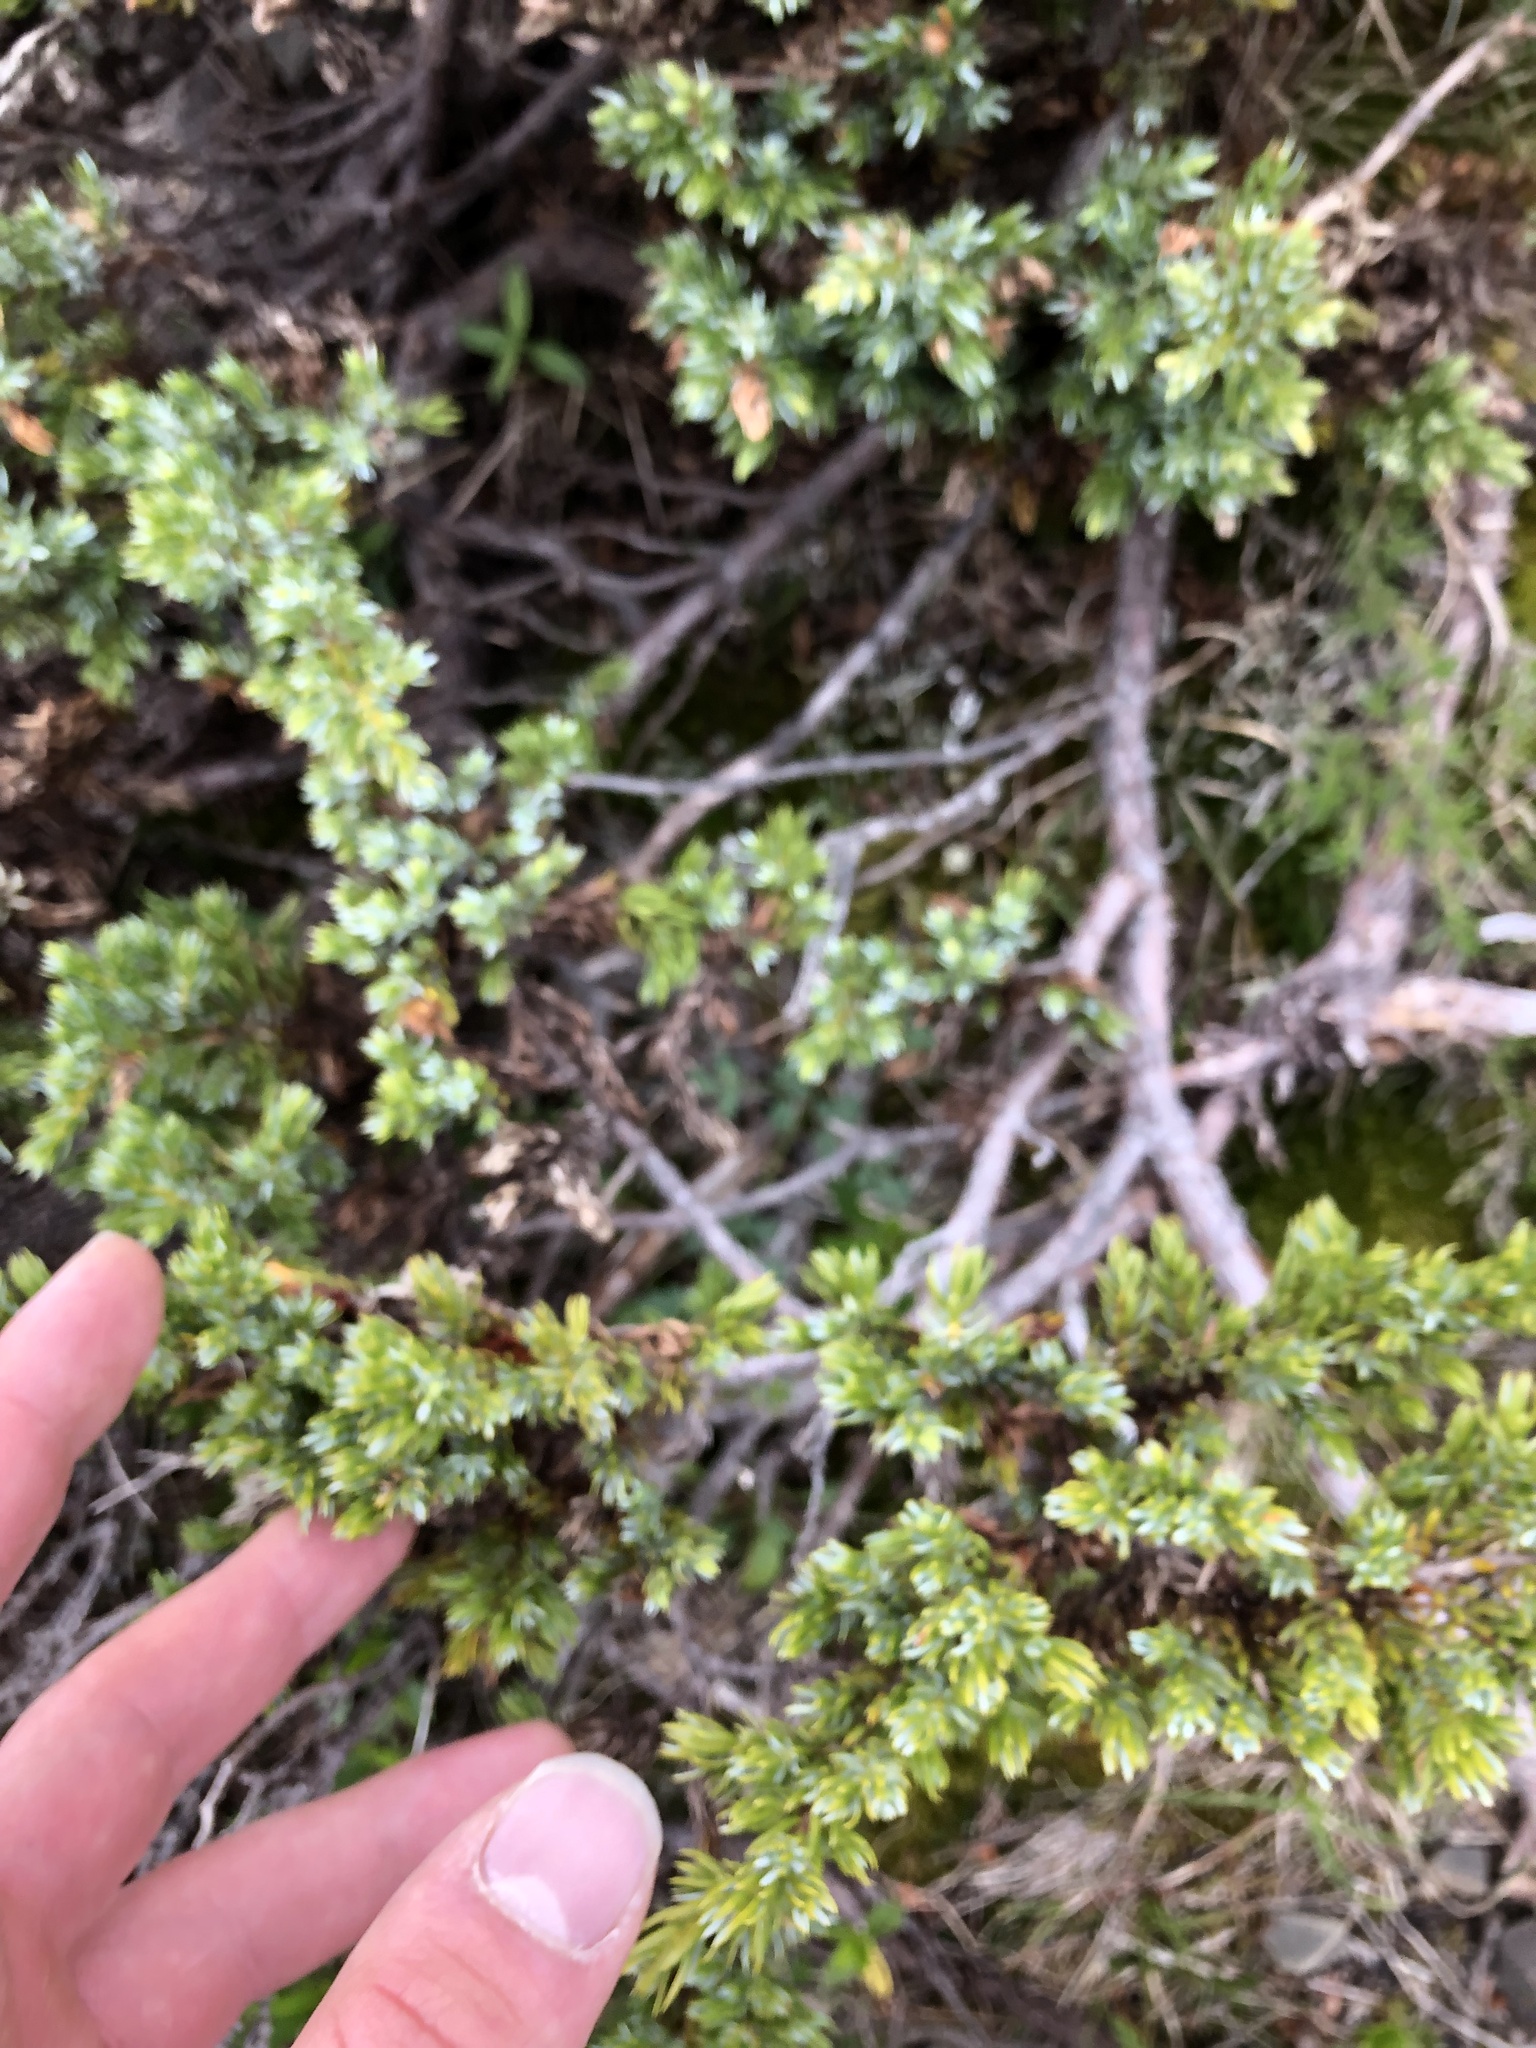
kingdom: Plantae
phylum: Tracheophyta
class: Pinopsida
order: Pinales
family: Cupressaceae
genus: Juniperus
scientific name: Juniperus communis
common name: Common juniper
